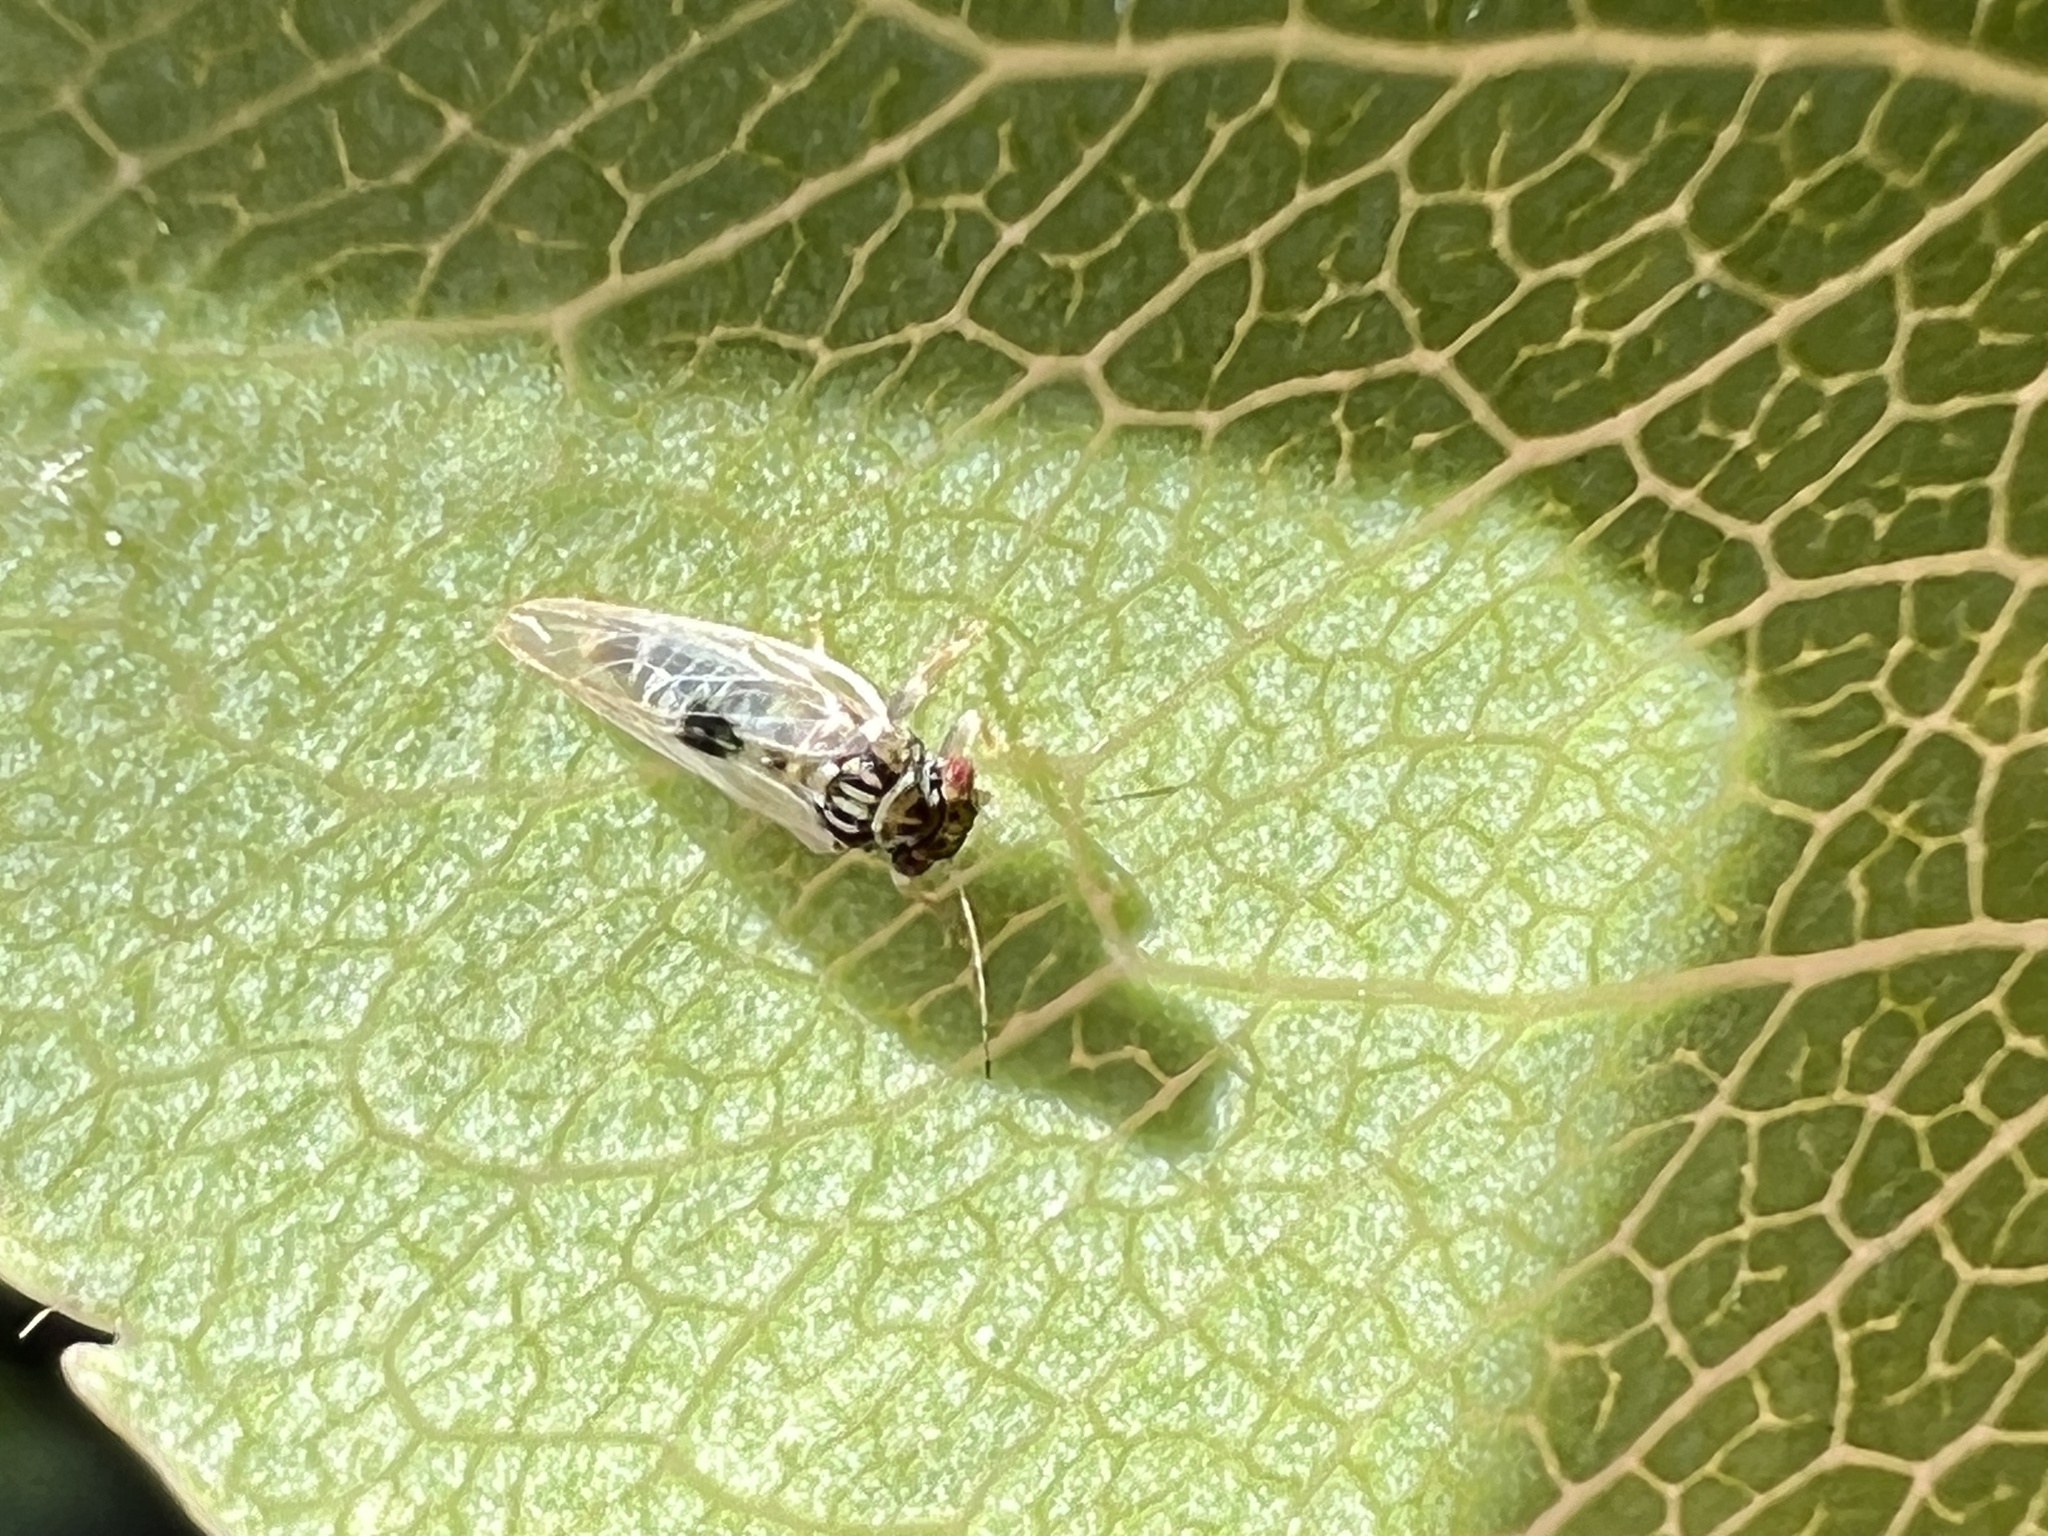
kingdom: Animalia
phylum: Arthropoda
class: Insecta
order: Hemiptera
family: Psyllidae
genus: Cacopsylla
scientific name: Cacopsylla pyricola
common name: Pear psylla
